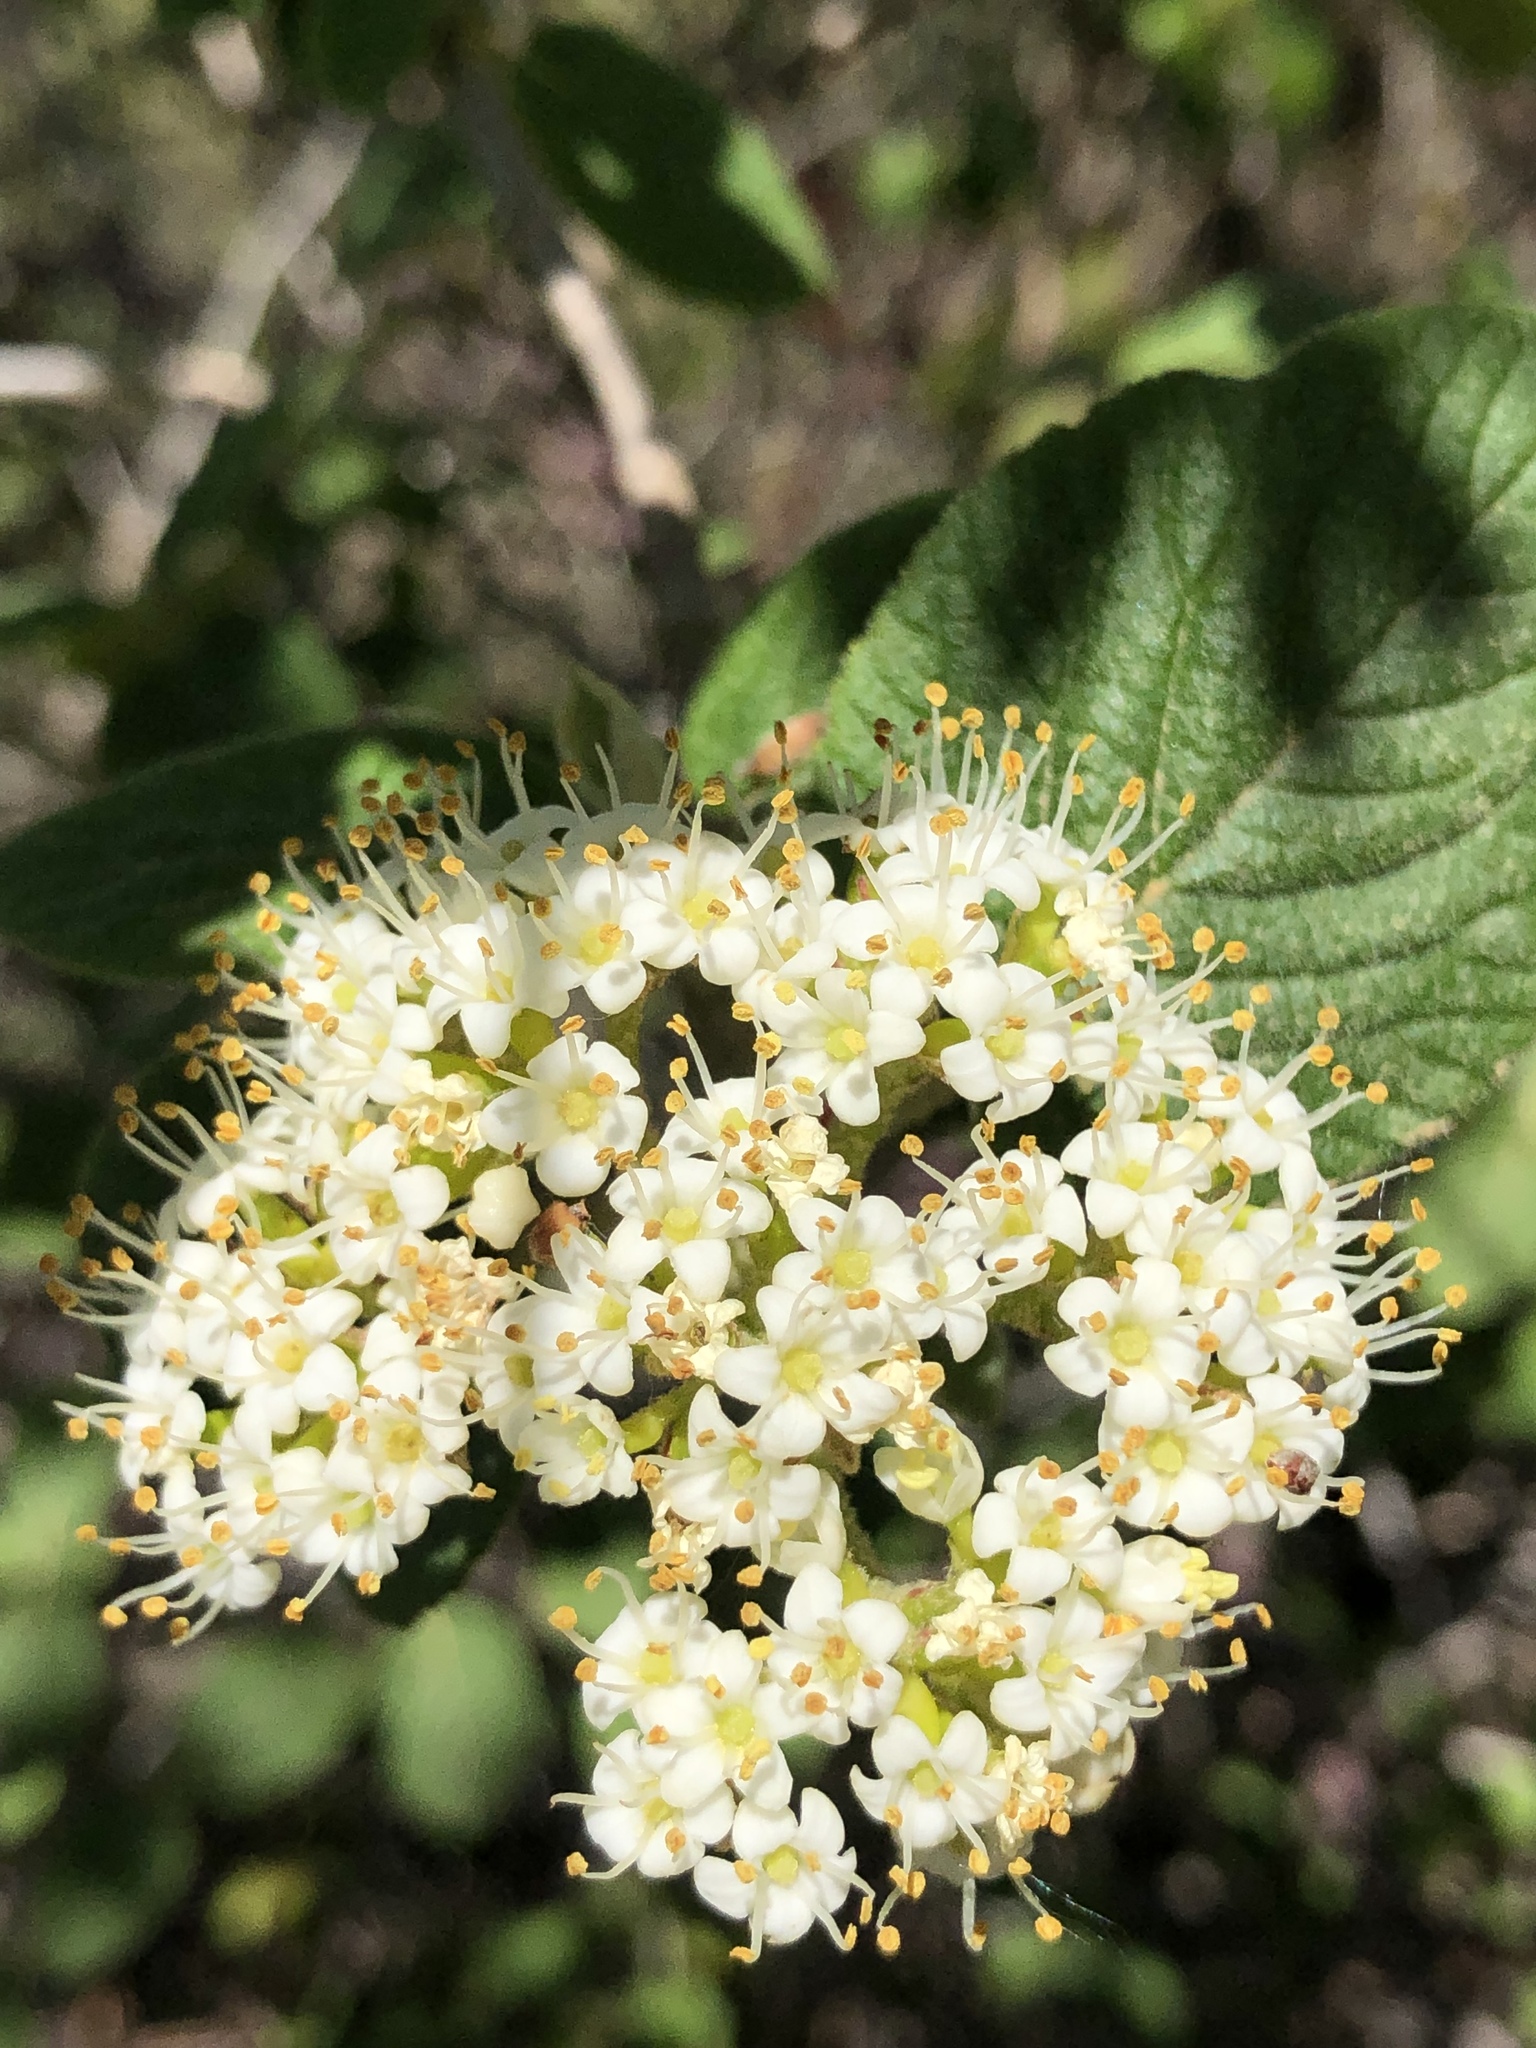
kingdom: Plantae
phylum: Tracheophyta
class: Magnoliopsida
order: Dipsacales
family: Viburnaceae
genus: Viburnum
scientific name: Viburnum lantana
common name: Wayfaring tree
